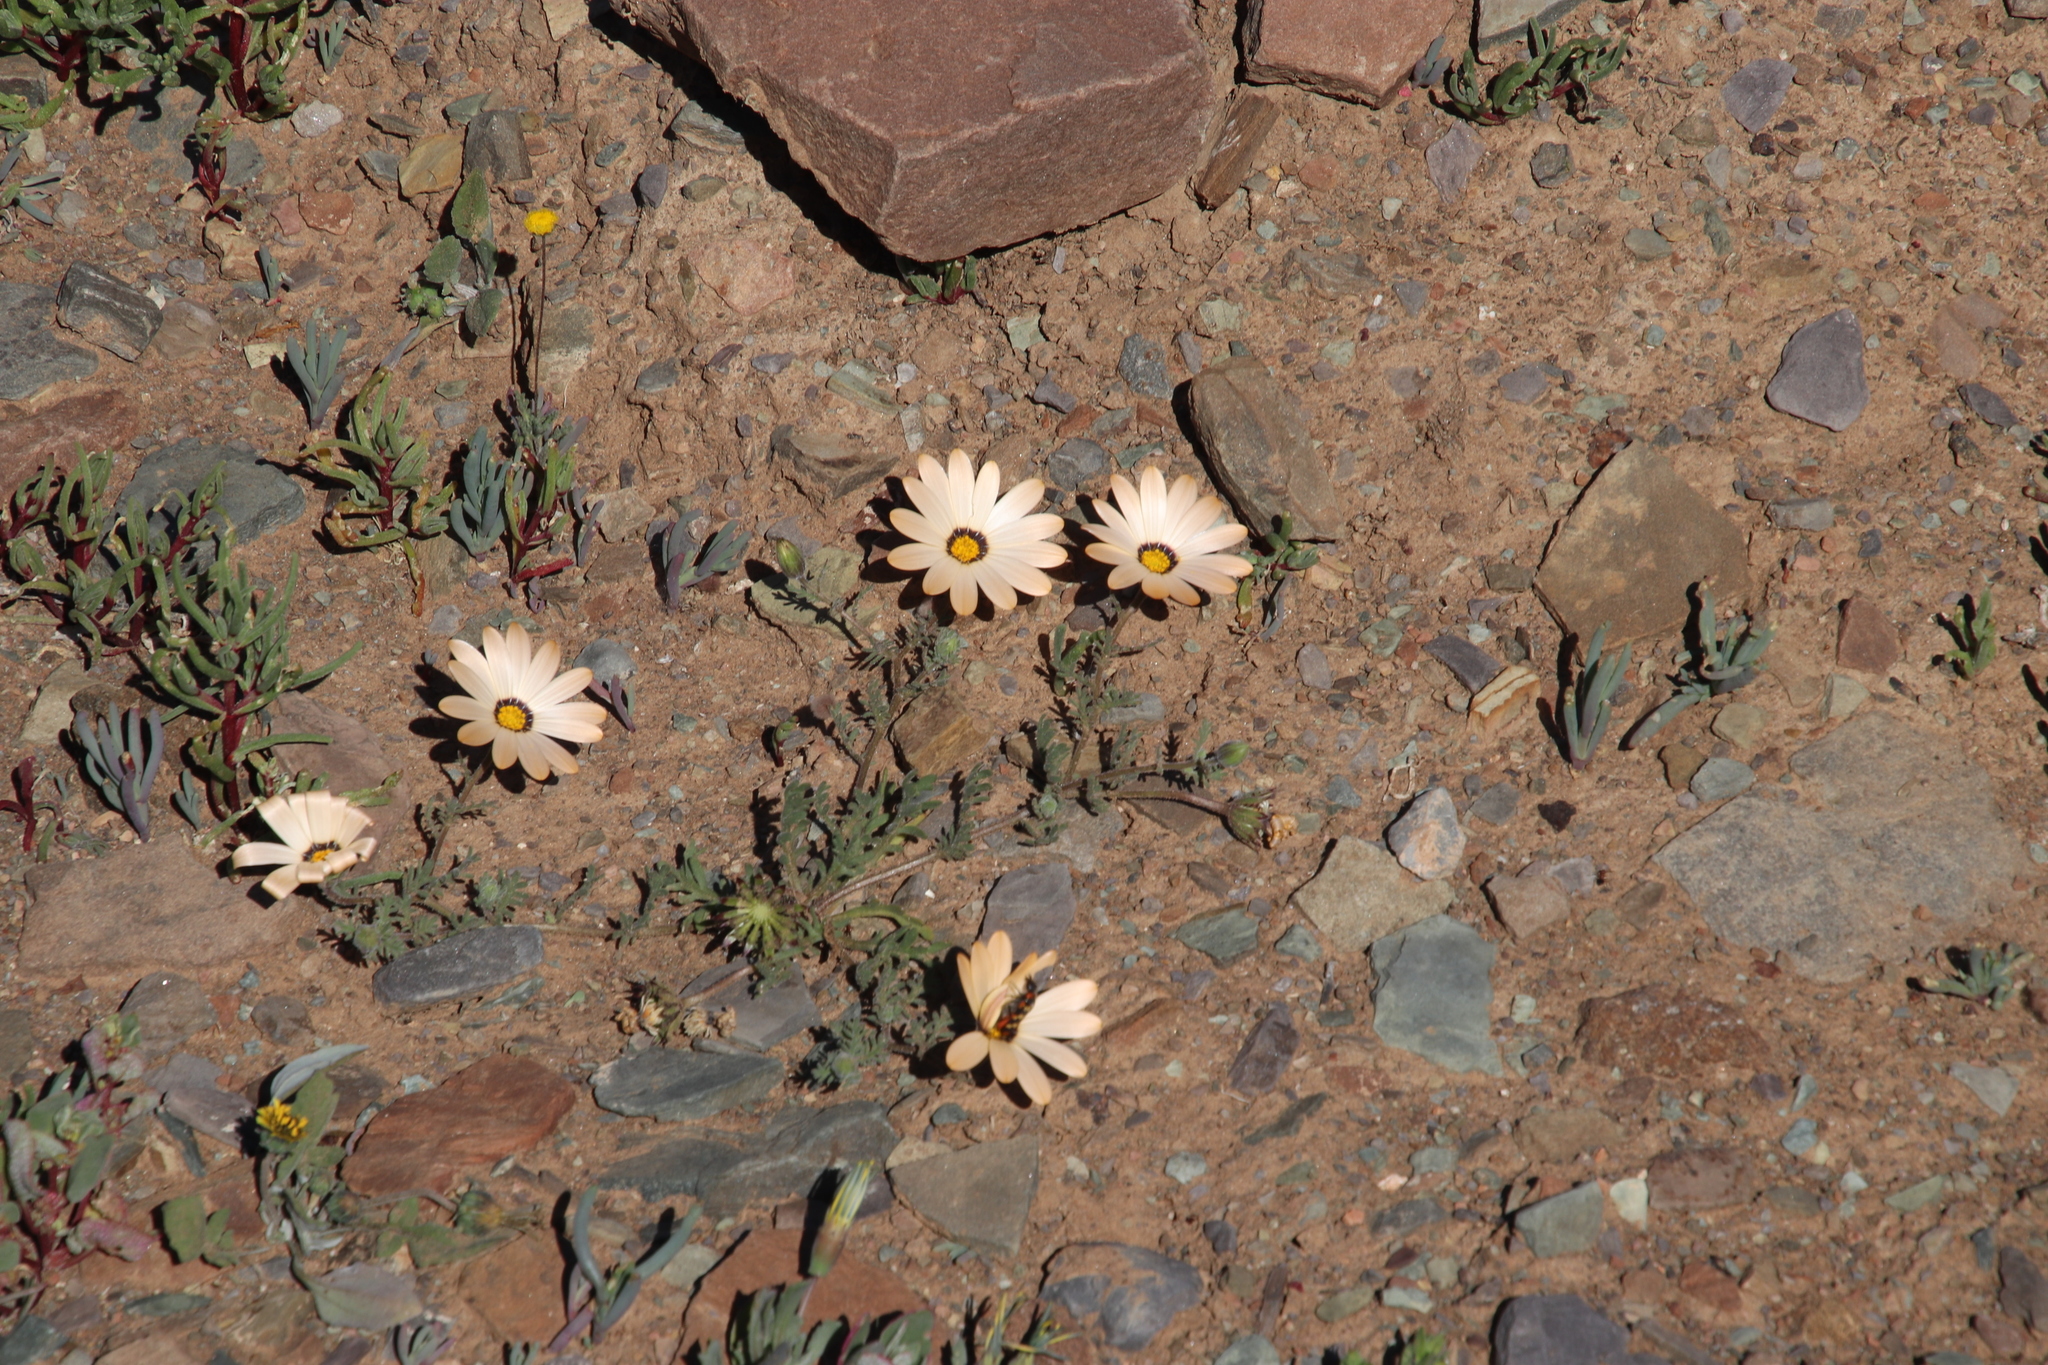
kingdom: Plantae
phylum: Tracheophyta
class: Magnoliopsida
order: Asterales
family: Asteraceae
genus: Dimorphotheca
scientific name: Dimorphotheca pinnata
